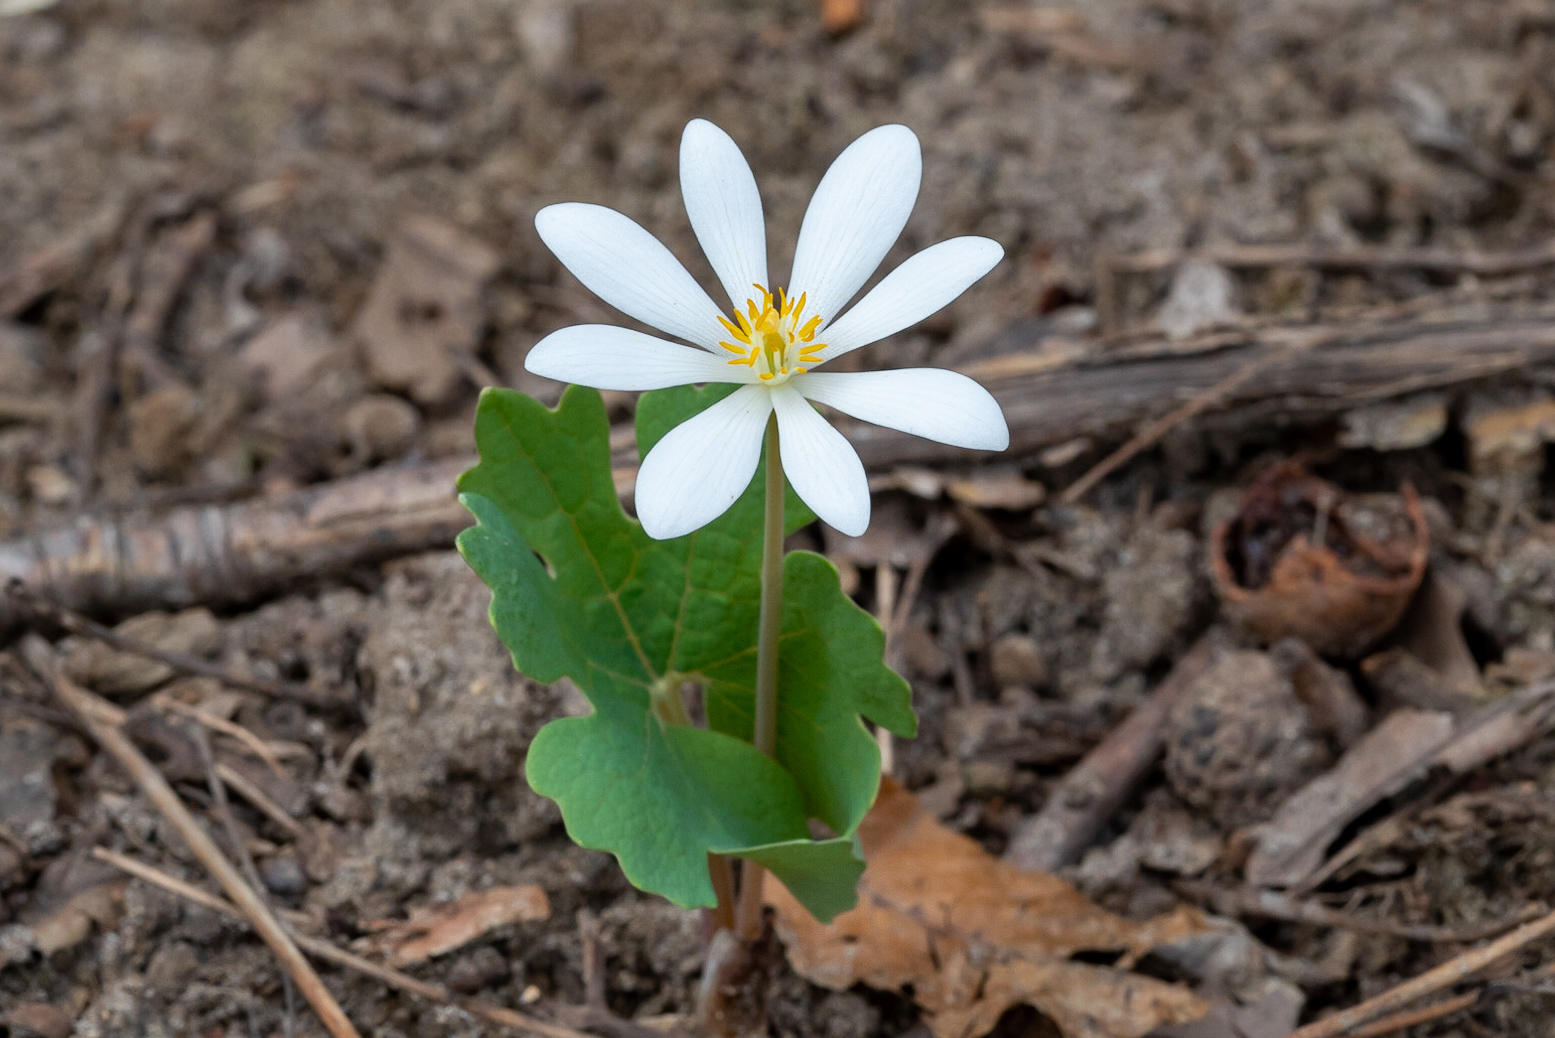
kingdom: Plantae
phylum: Tracheophyta
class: Magnoliopsida
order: Ranunculales
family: Papaveraceae
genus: Sanguinaria
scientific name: Sanguinaria canadensis
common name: Bloodroot
